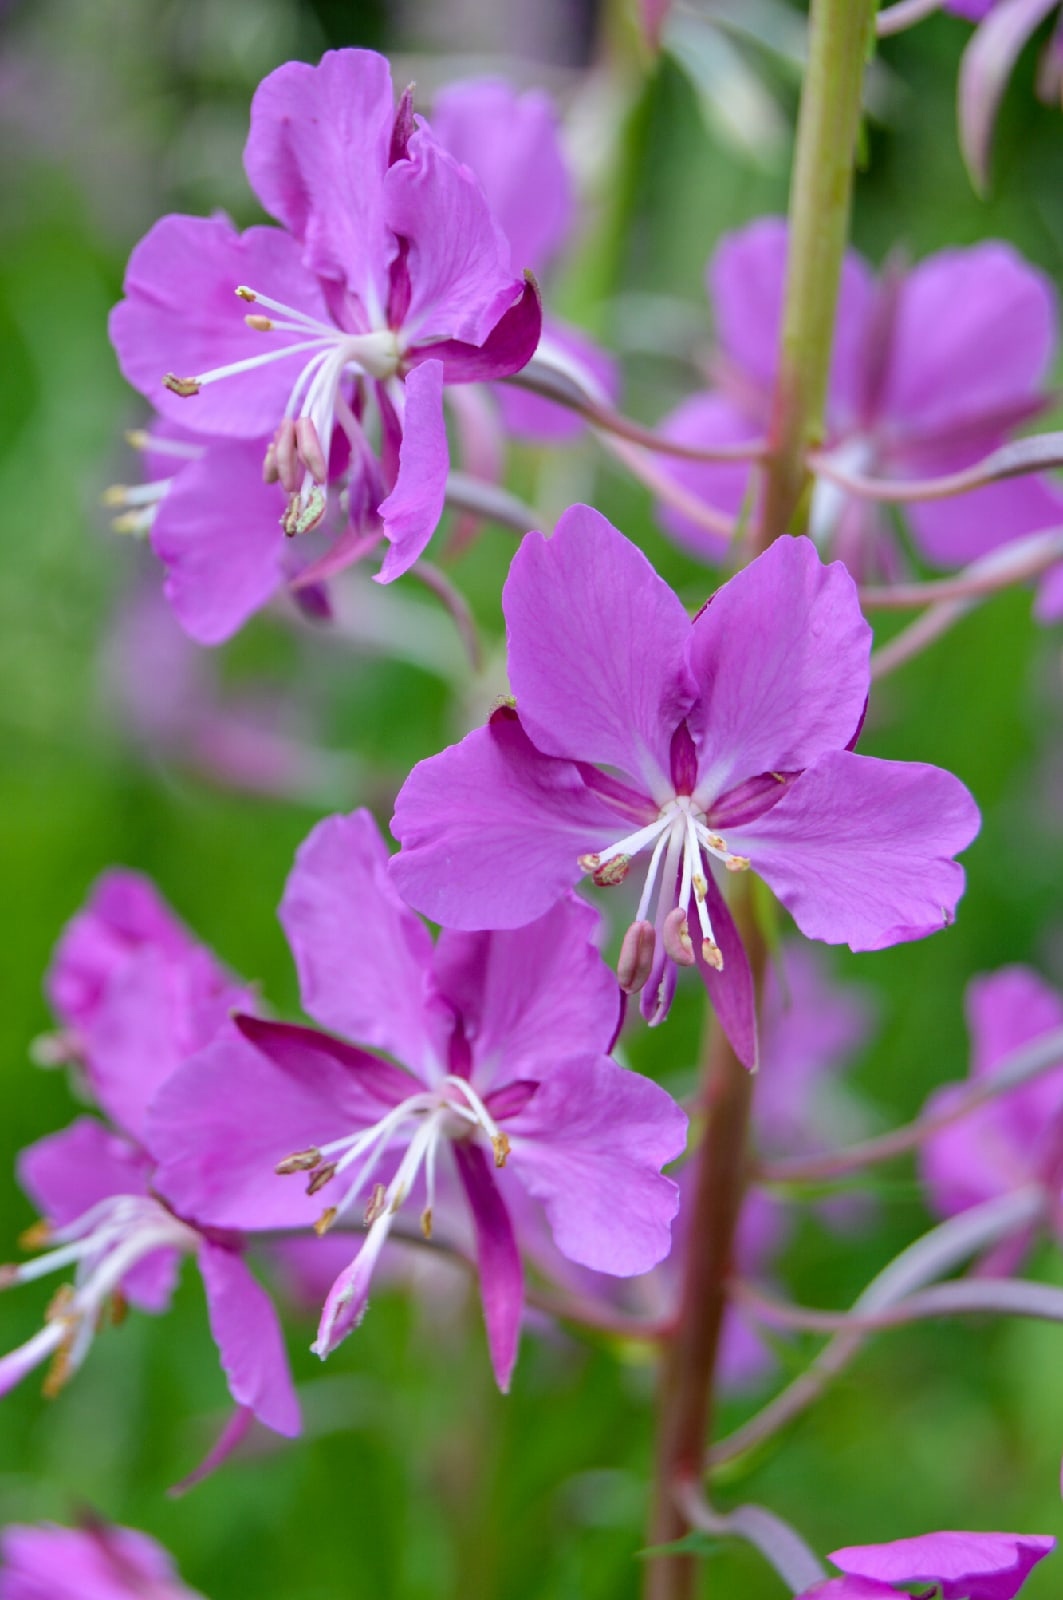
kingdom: Plantae
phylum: Tracheophyta
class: Magnoliopsida
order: Myrtales
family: Onagraceae
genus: Chamaenerion
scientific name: Chamaenerion angustifolium
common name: Fireweed
